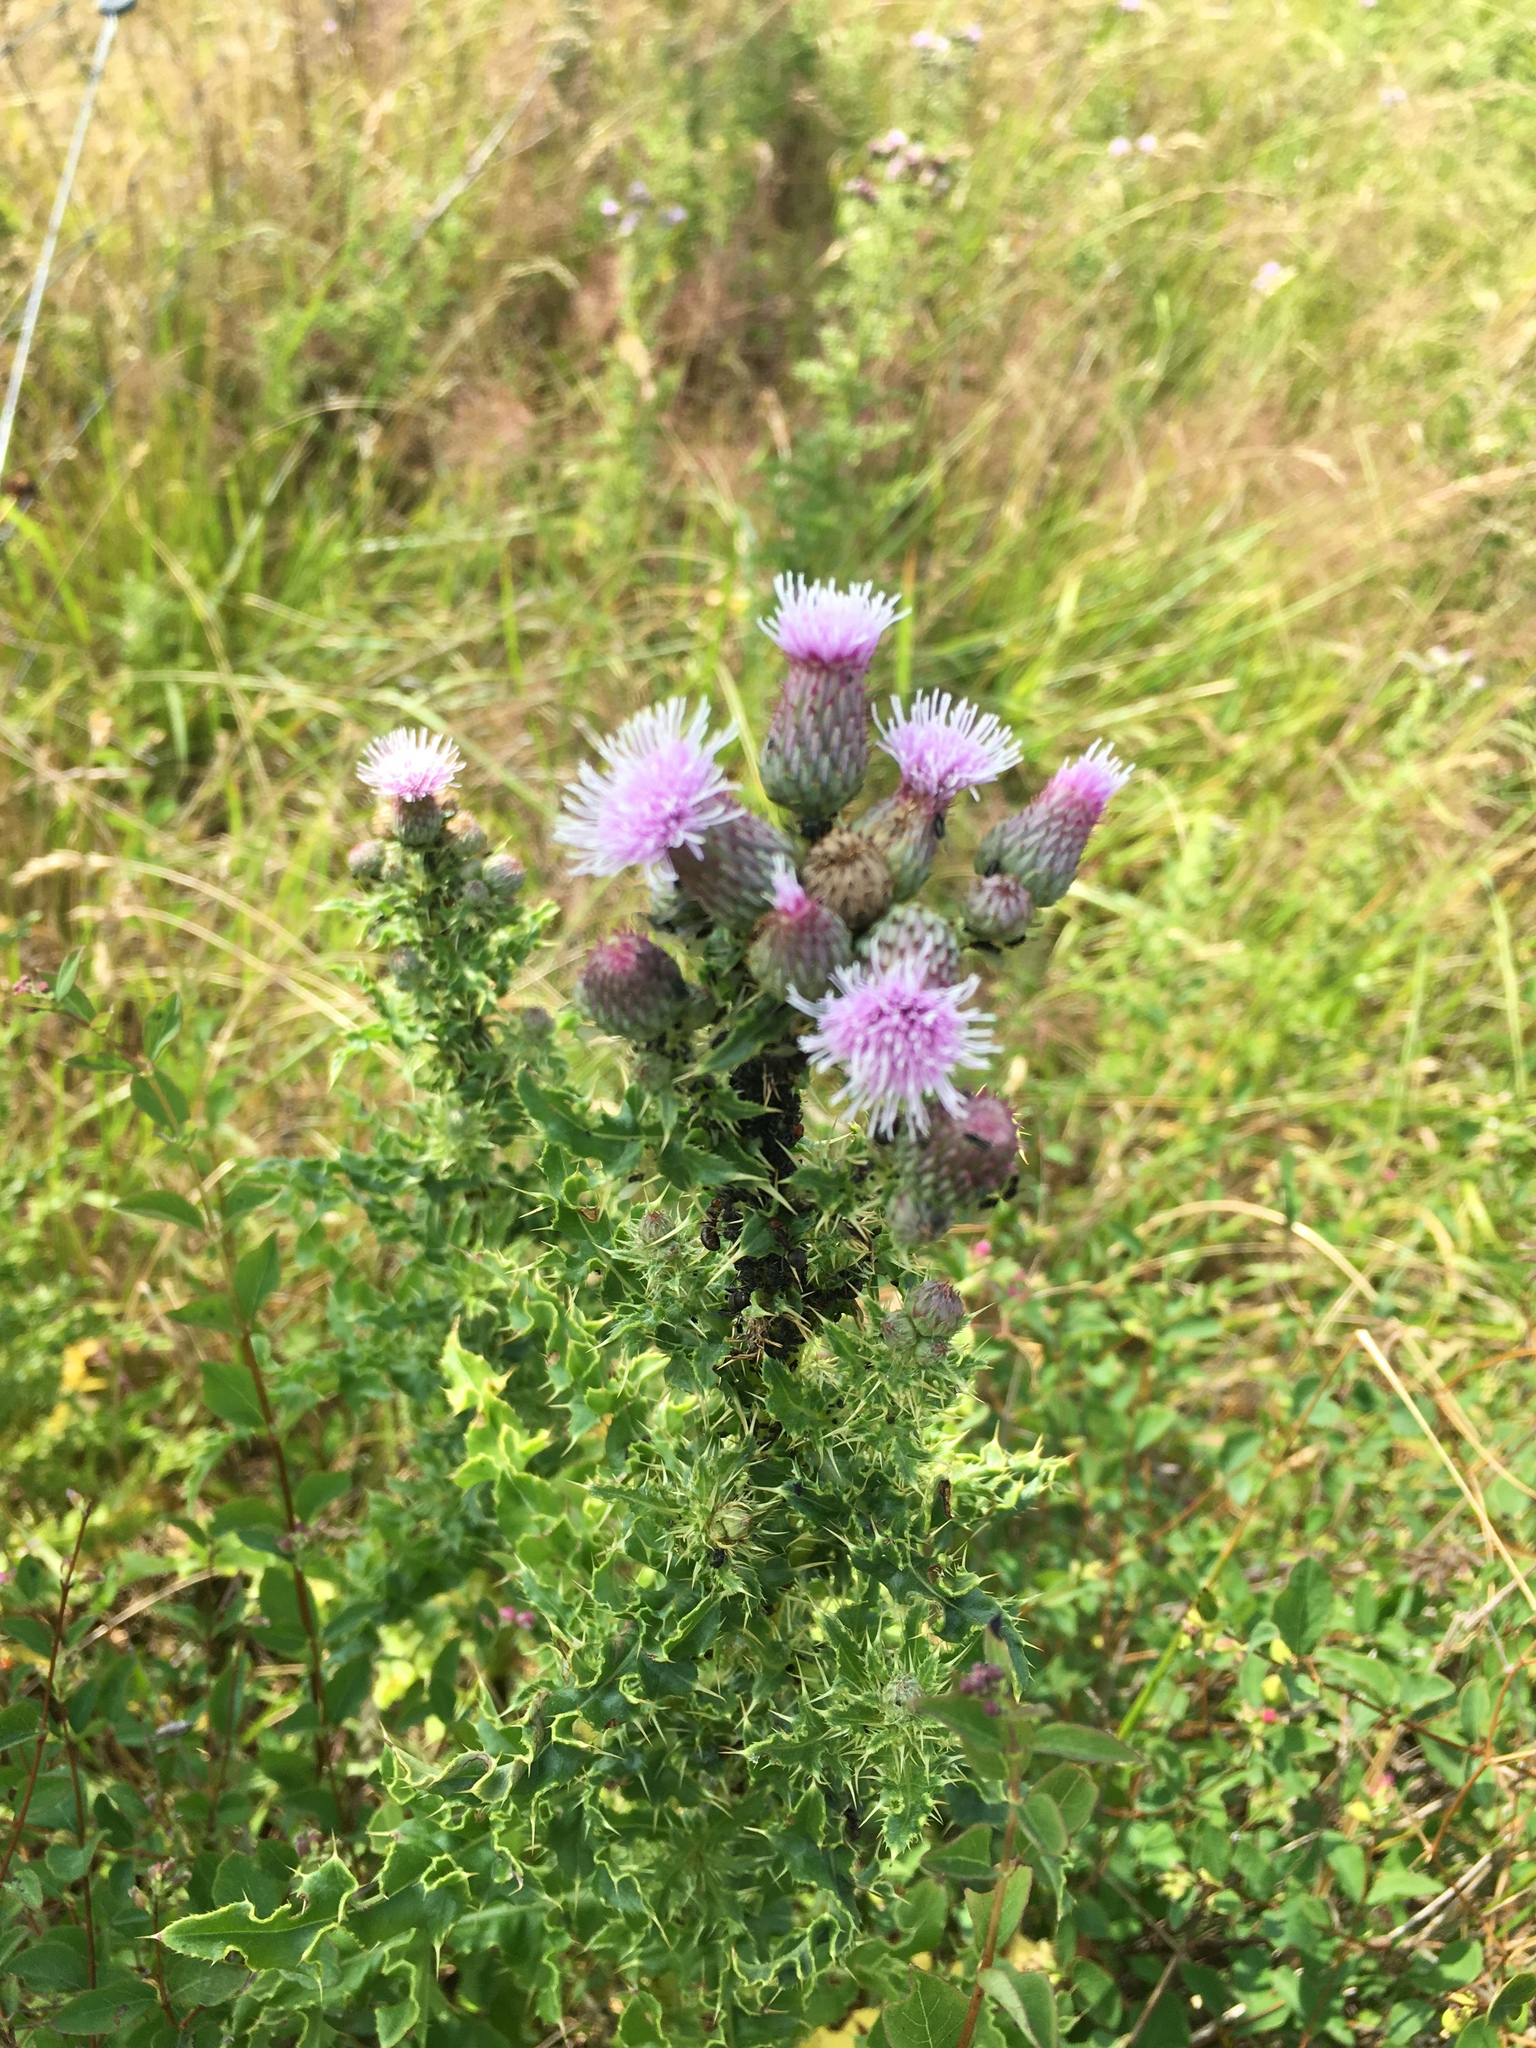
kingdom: Plantae
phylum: Tracheophyta
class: Magnoliopsida
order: Asterales
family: Asteraceae
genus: Cirsium
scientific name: Cirsium arvense
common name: Creeping thistle
